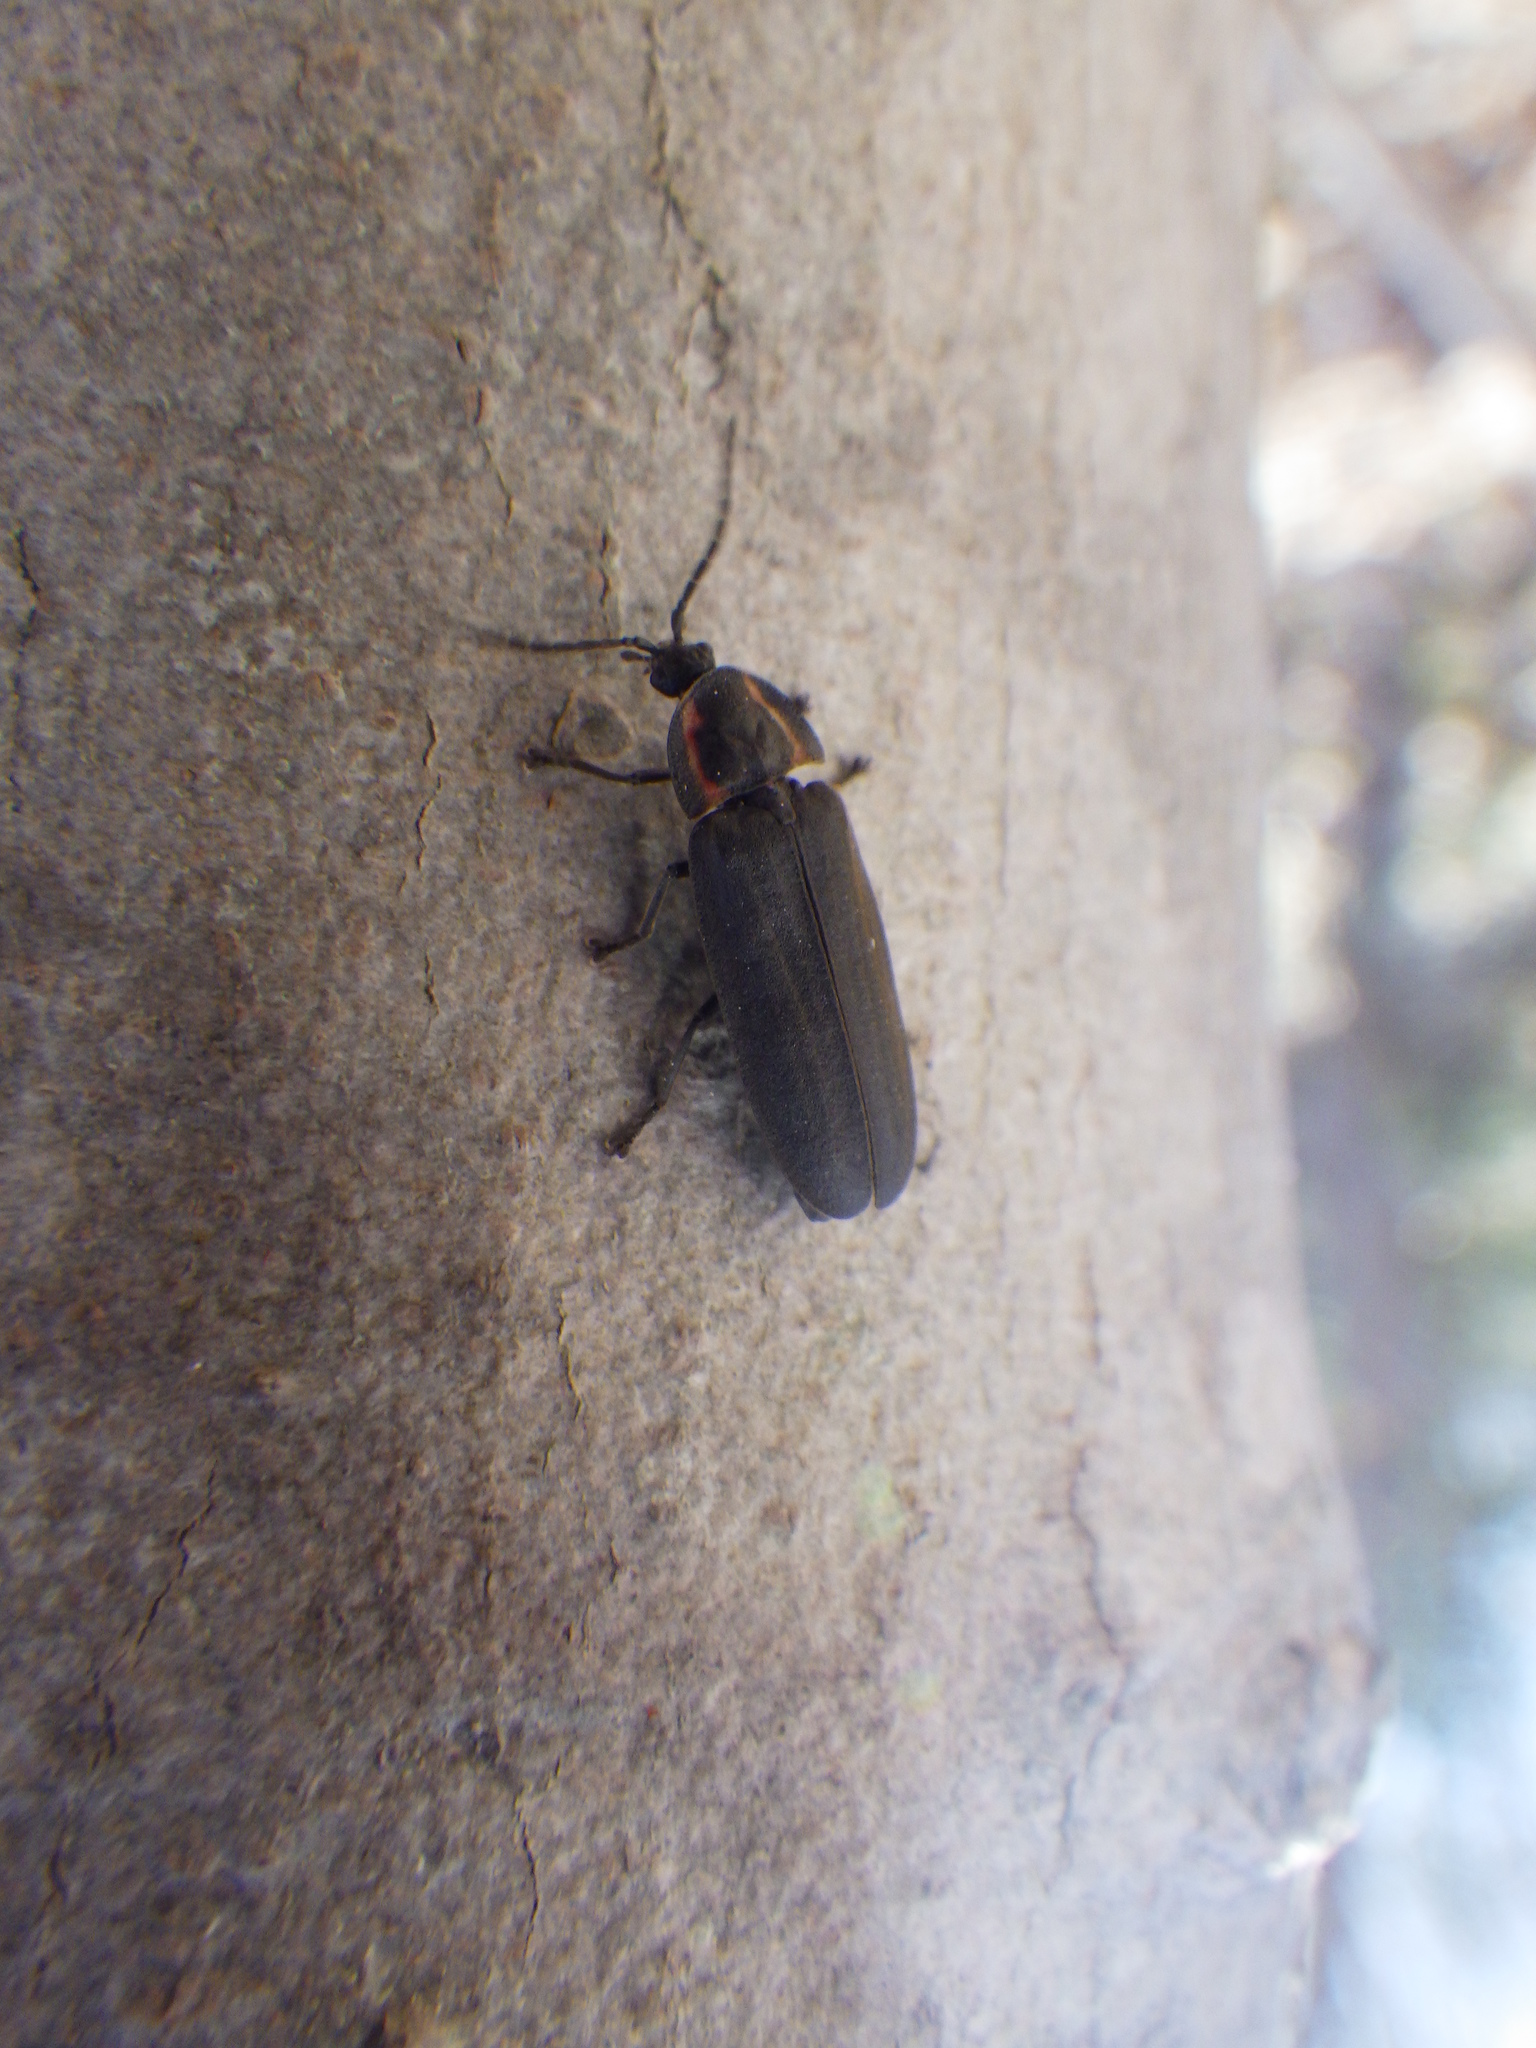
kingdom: Animalia
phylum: Arthropoda
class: Insecta
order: Coleoptera
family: Lampyridae
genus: Photinus
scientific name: Photinus corrusca
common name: Winter firefly
